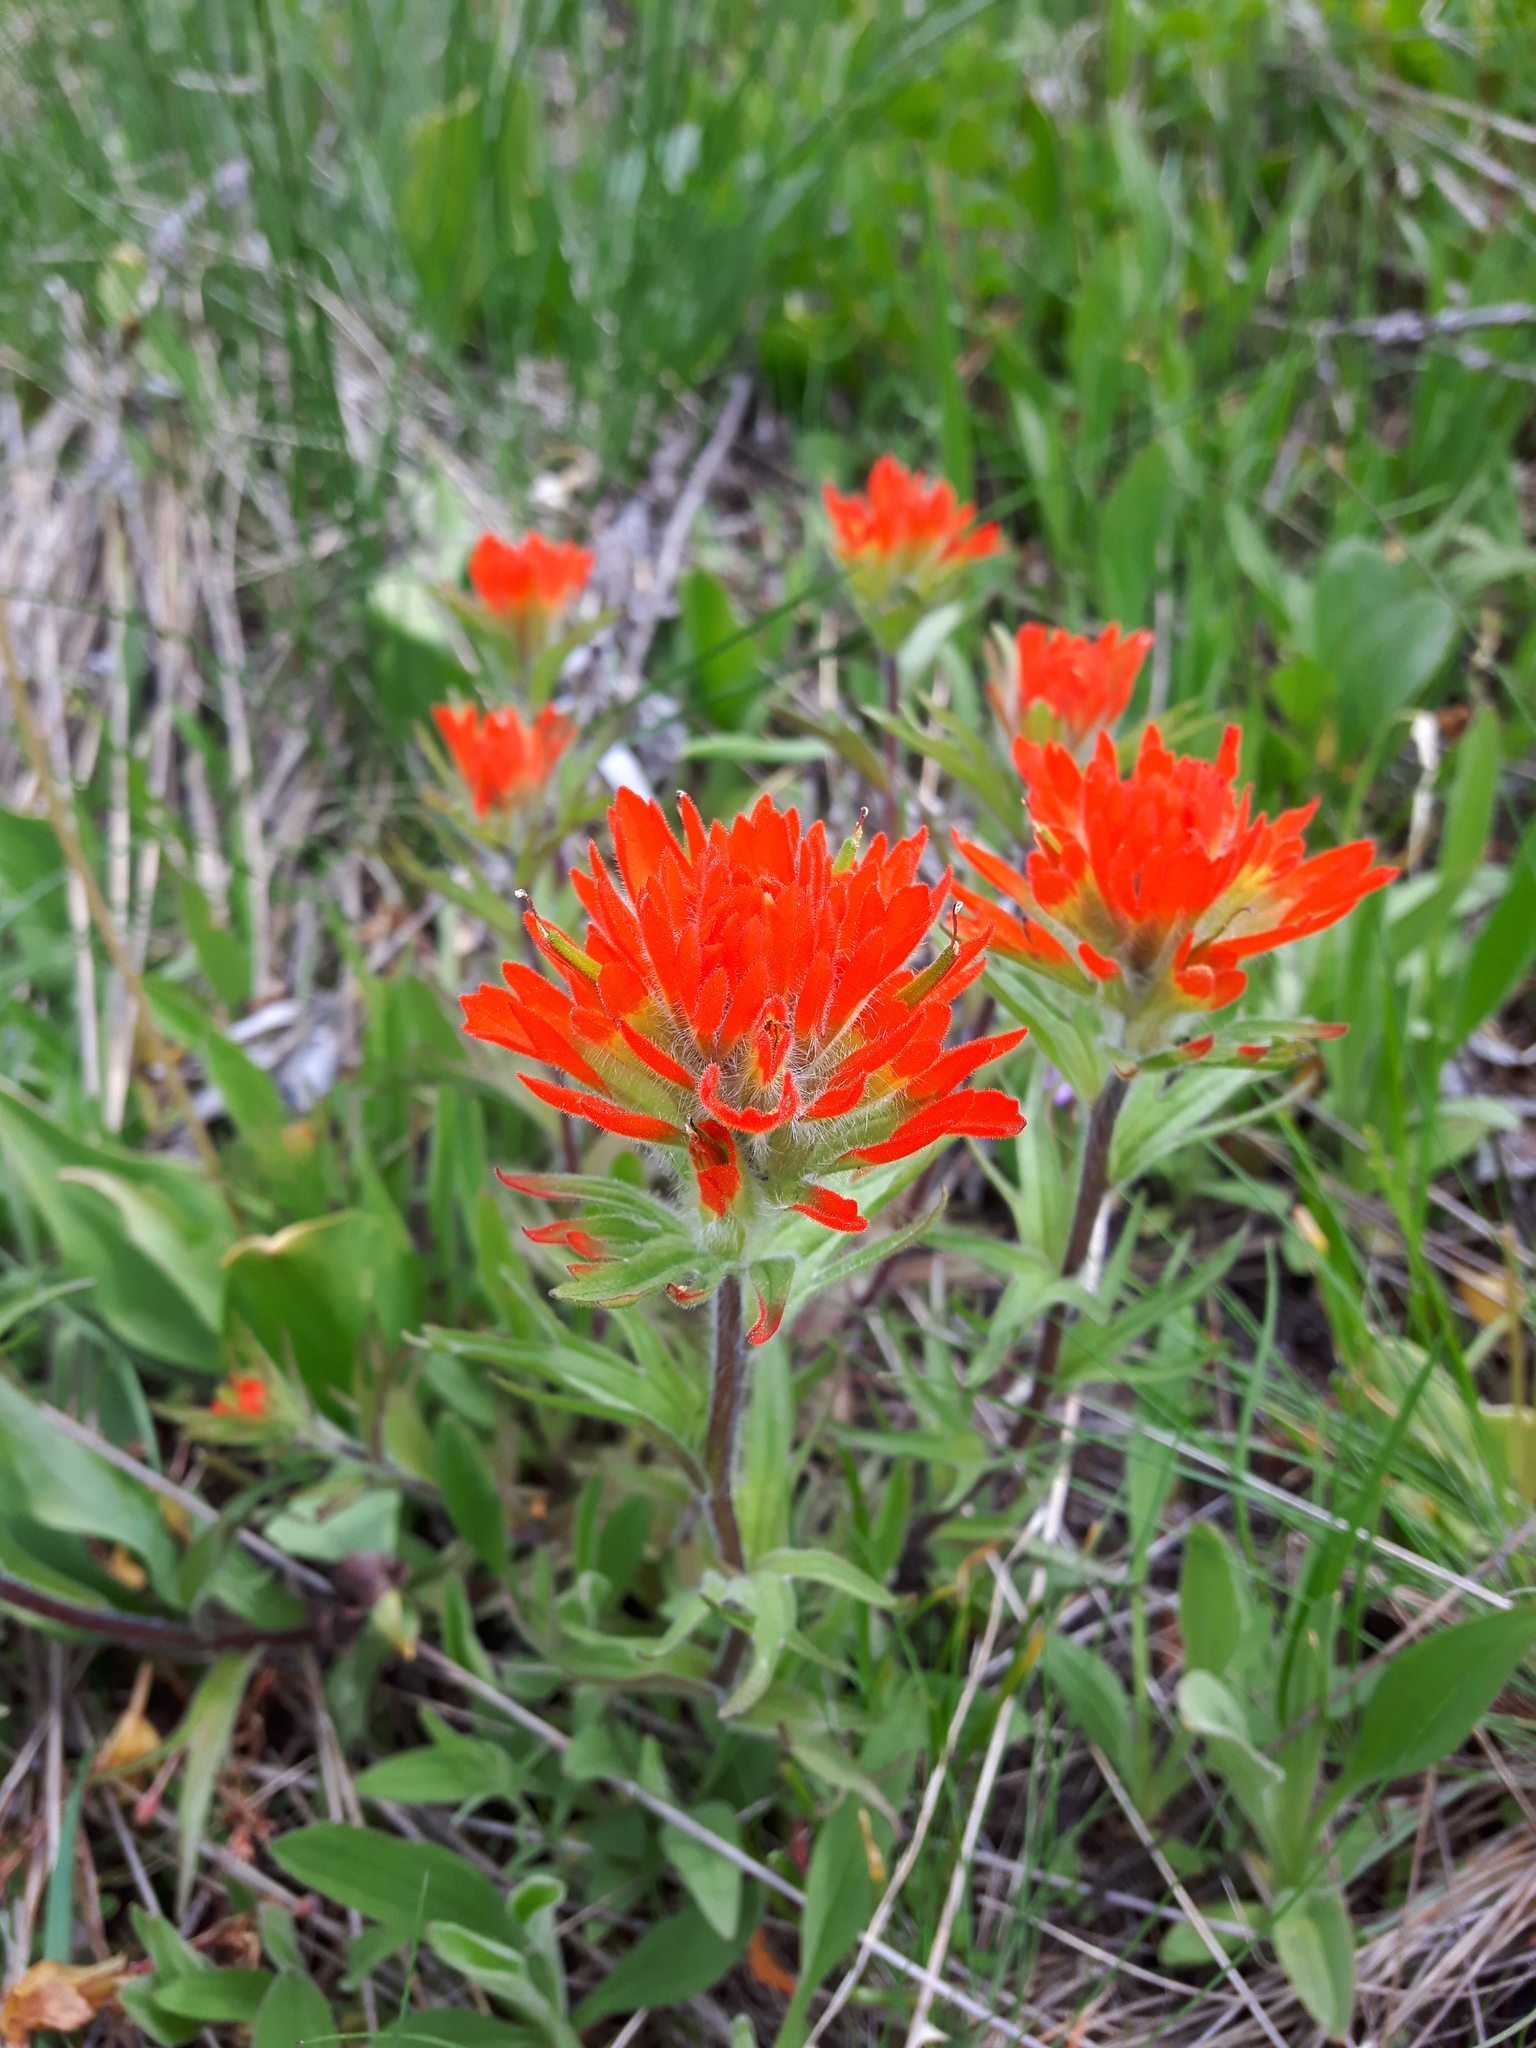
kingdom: Plantae
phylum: Tracheophyta
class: Magnoliopsida
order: Lamiales
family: Orobanchaceae
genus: Castilleja
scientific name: Castilleja hispida
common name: Bristly paintbrush
